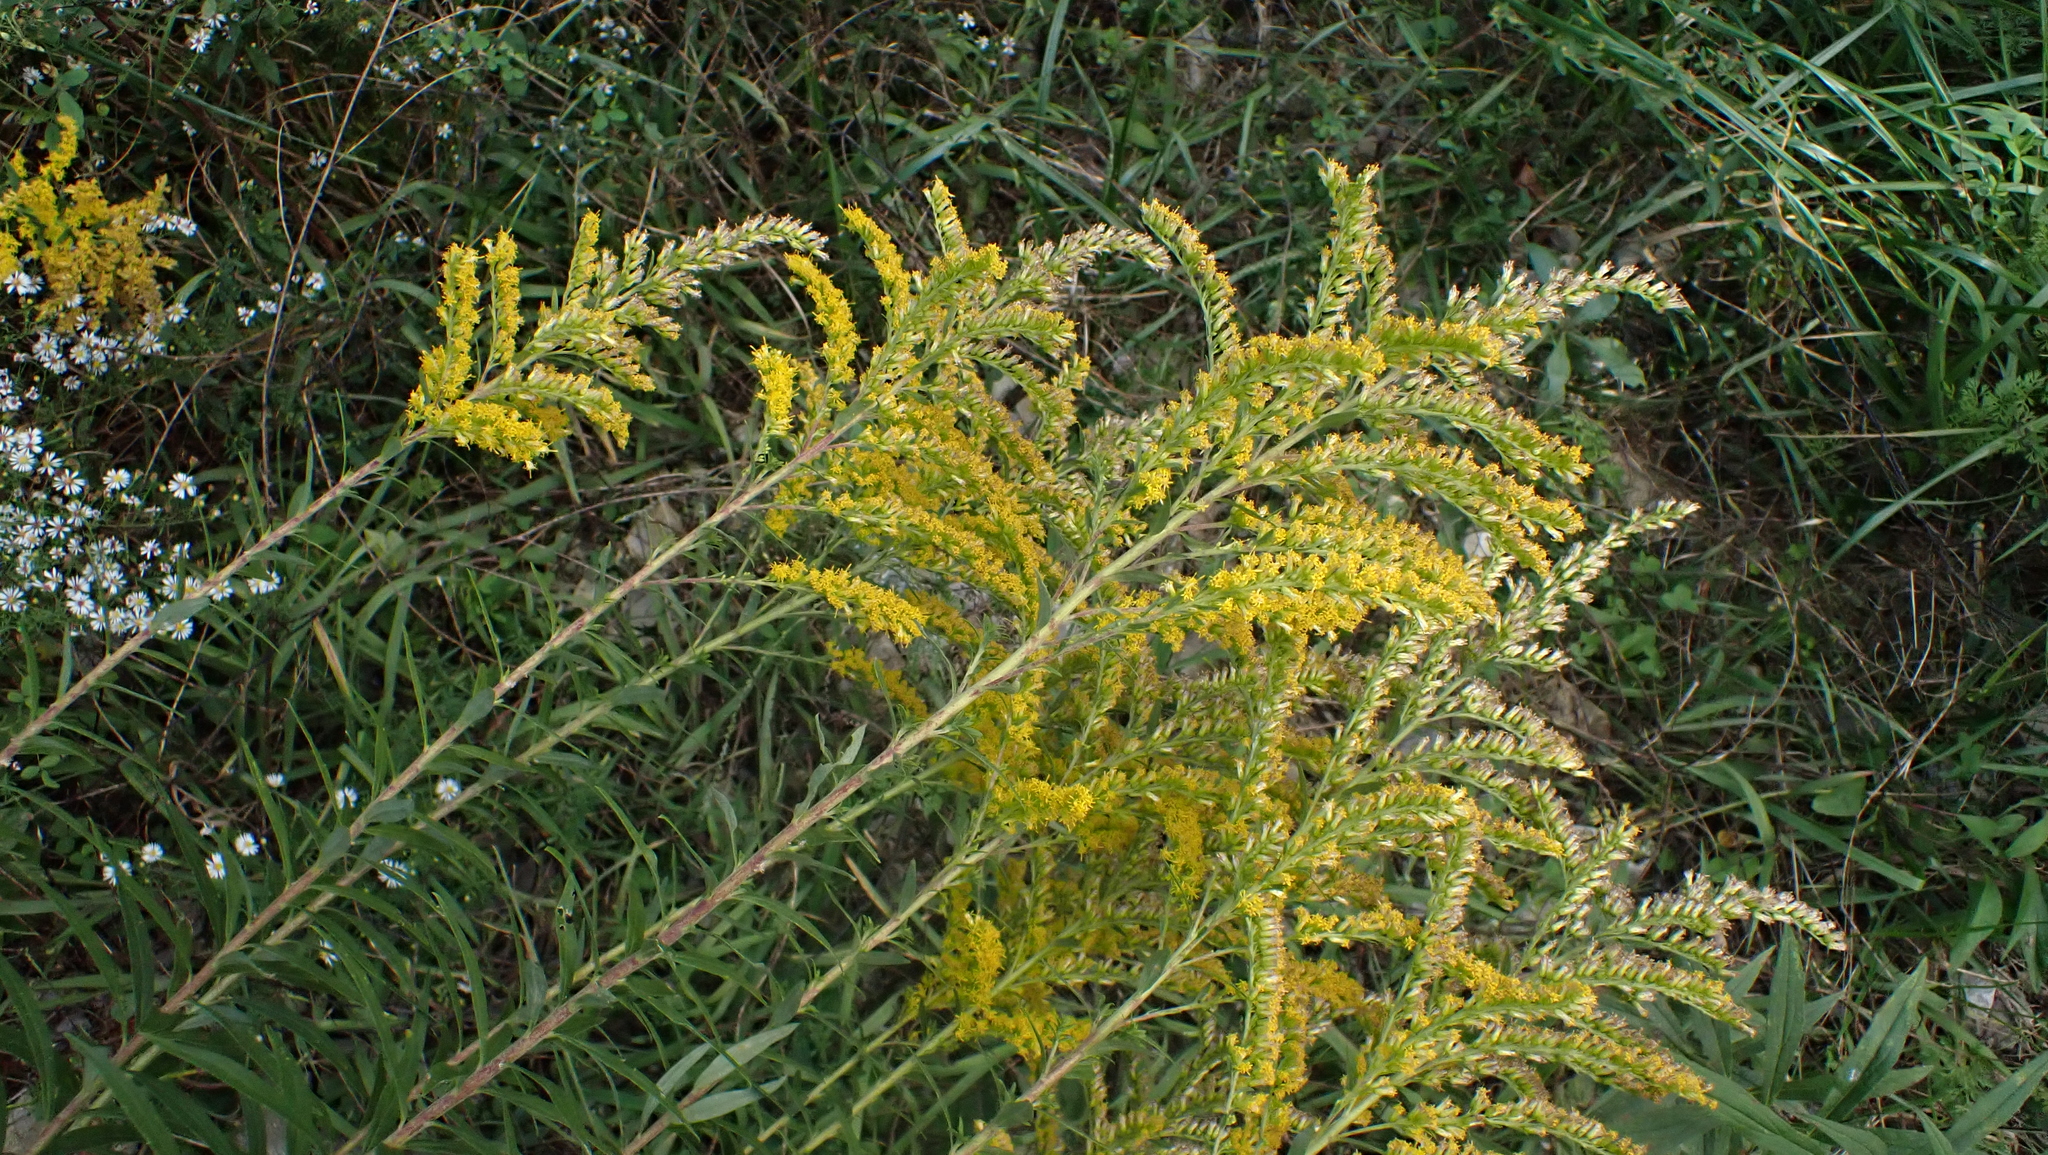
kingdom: Animalia
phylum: Arthropoda
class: Insecta
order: Diptera
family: Tephritidae
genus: Eurosta
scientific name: Eurosta solidaginis
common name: Goldenrod gall fly
